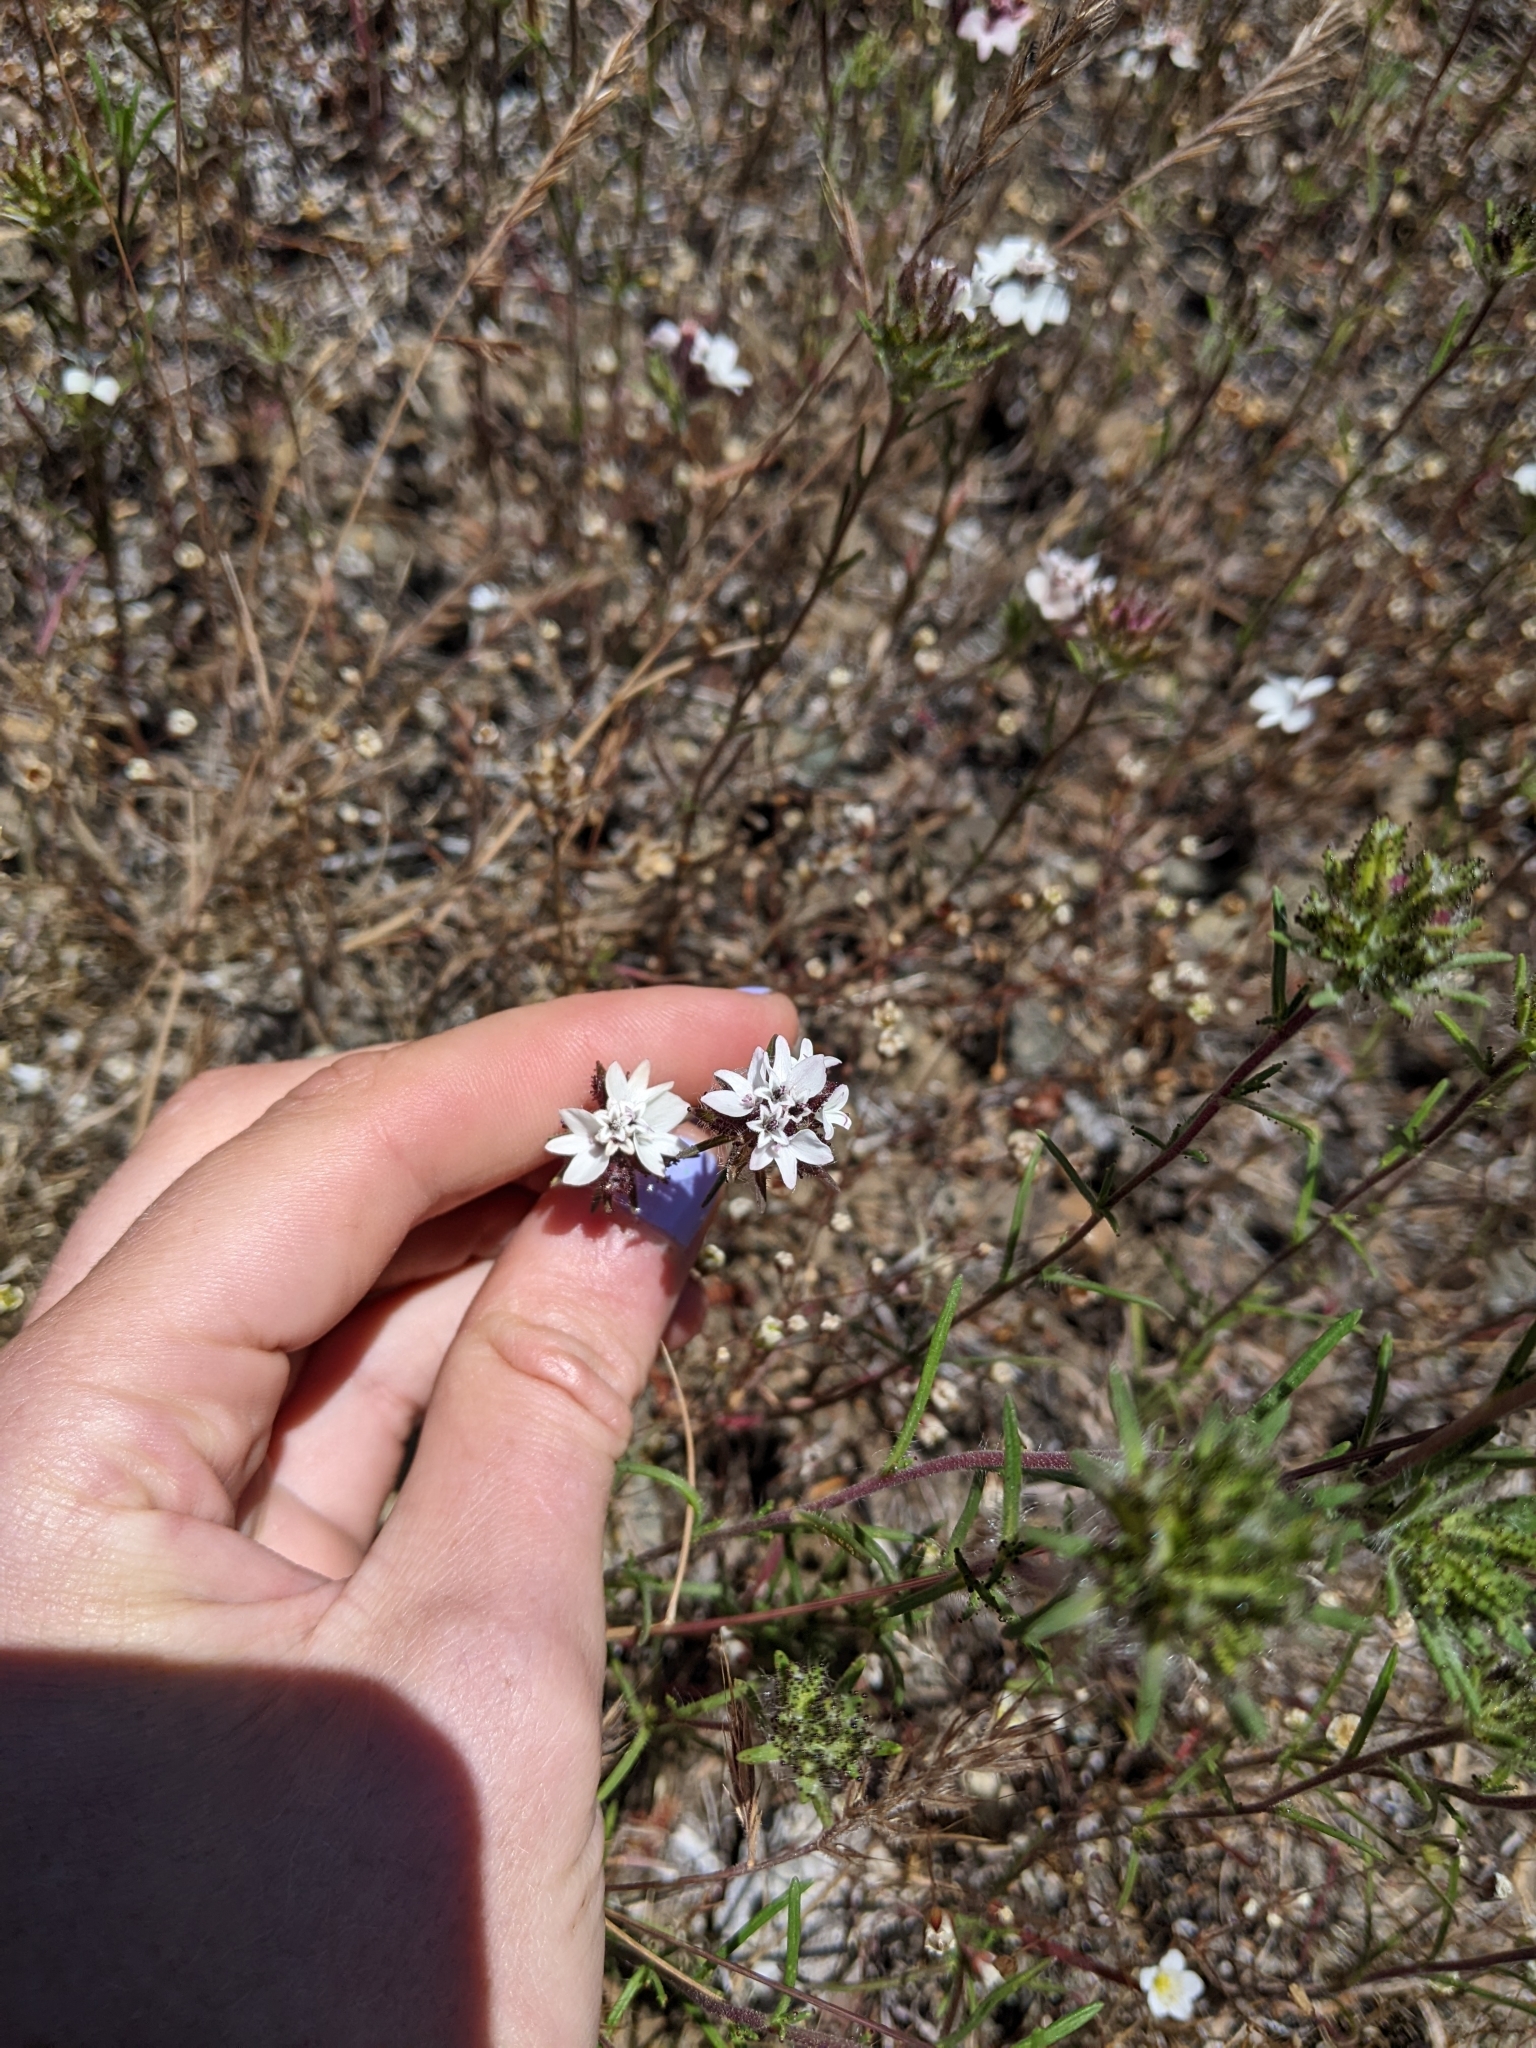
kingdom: Plantae
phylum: Tracheophyta
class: Magnoliopsida
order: Asterales
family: Asteraceae
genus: Calycadenia
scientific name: Calycadenia multiglandulosa
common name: Sticky calycadenia
